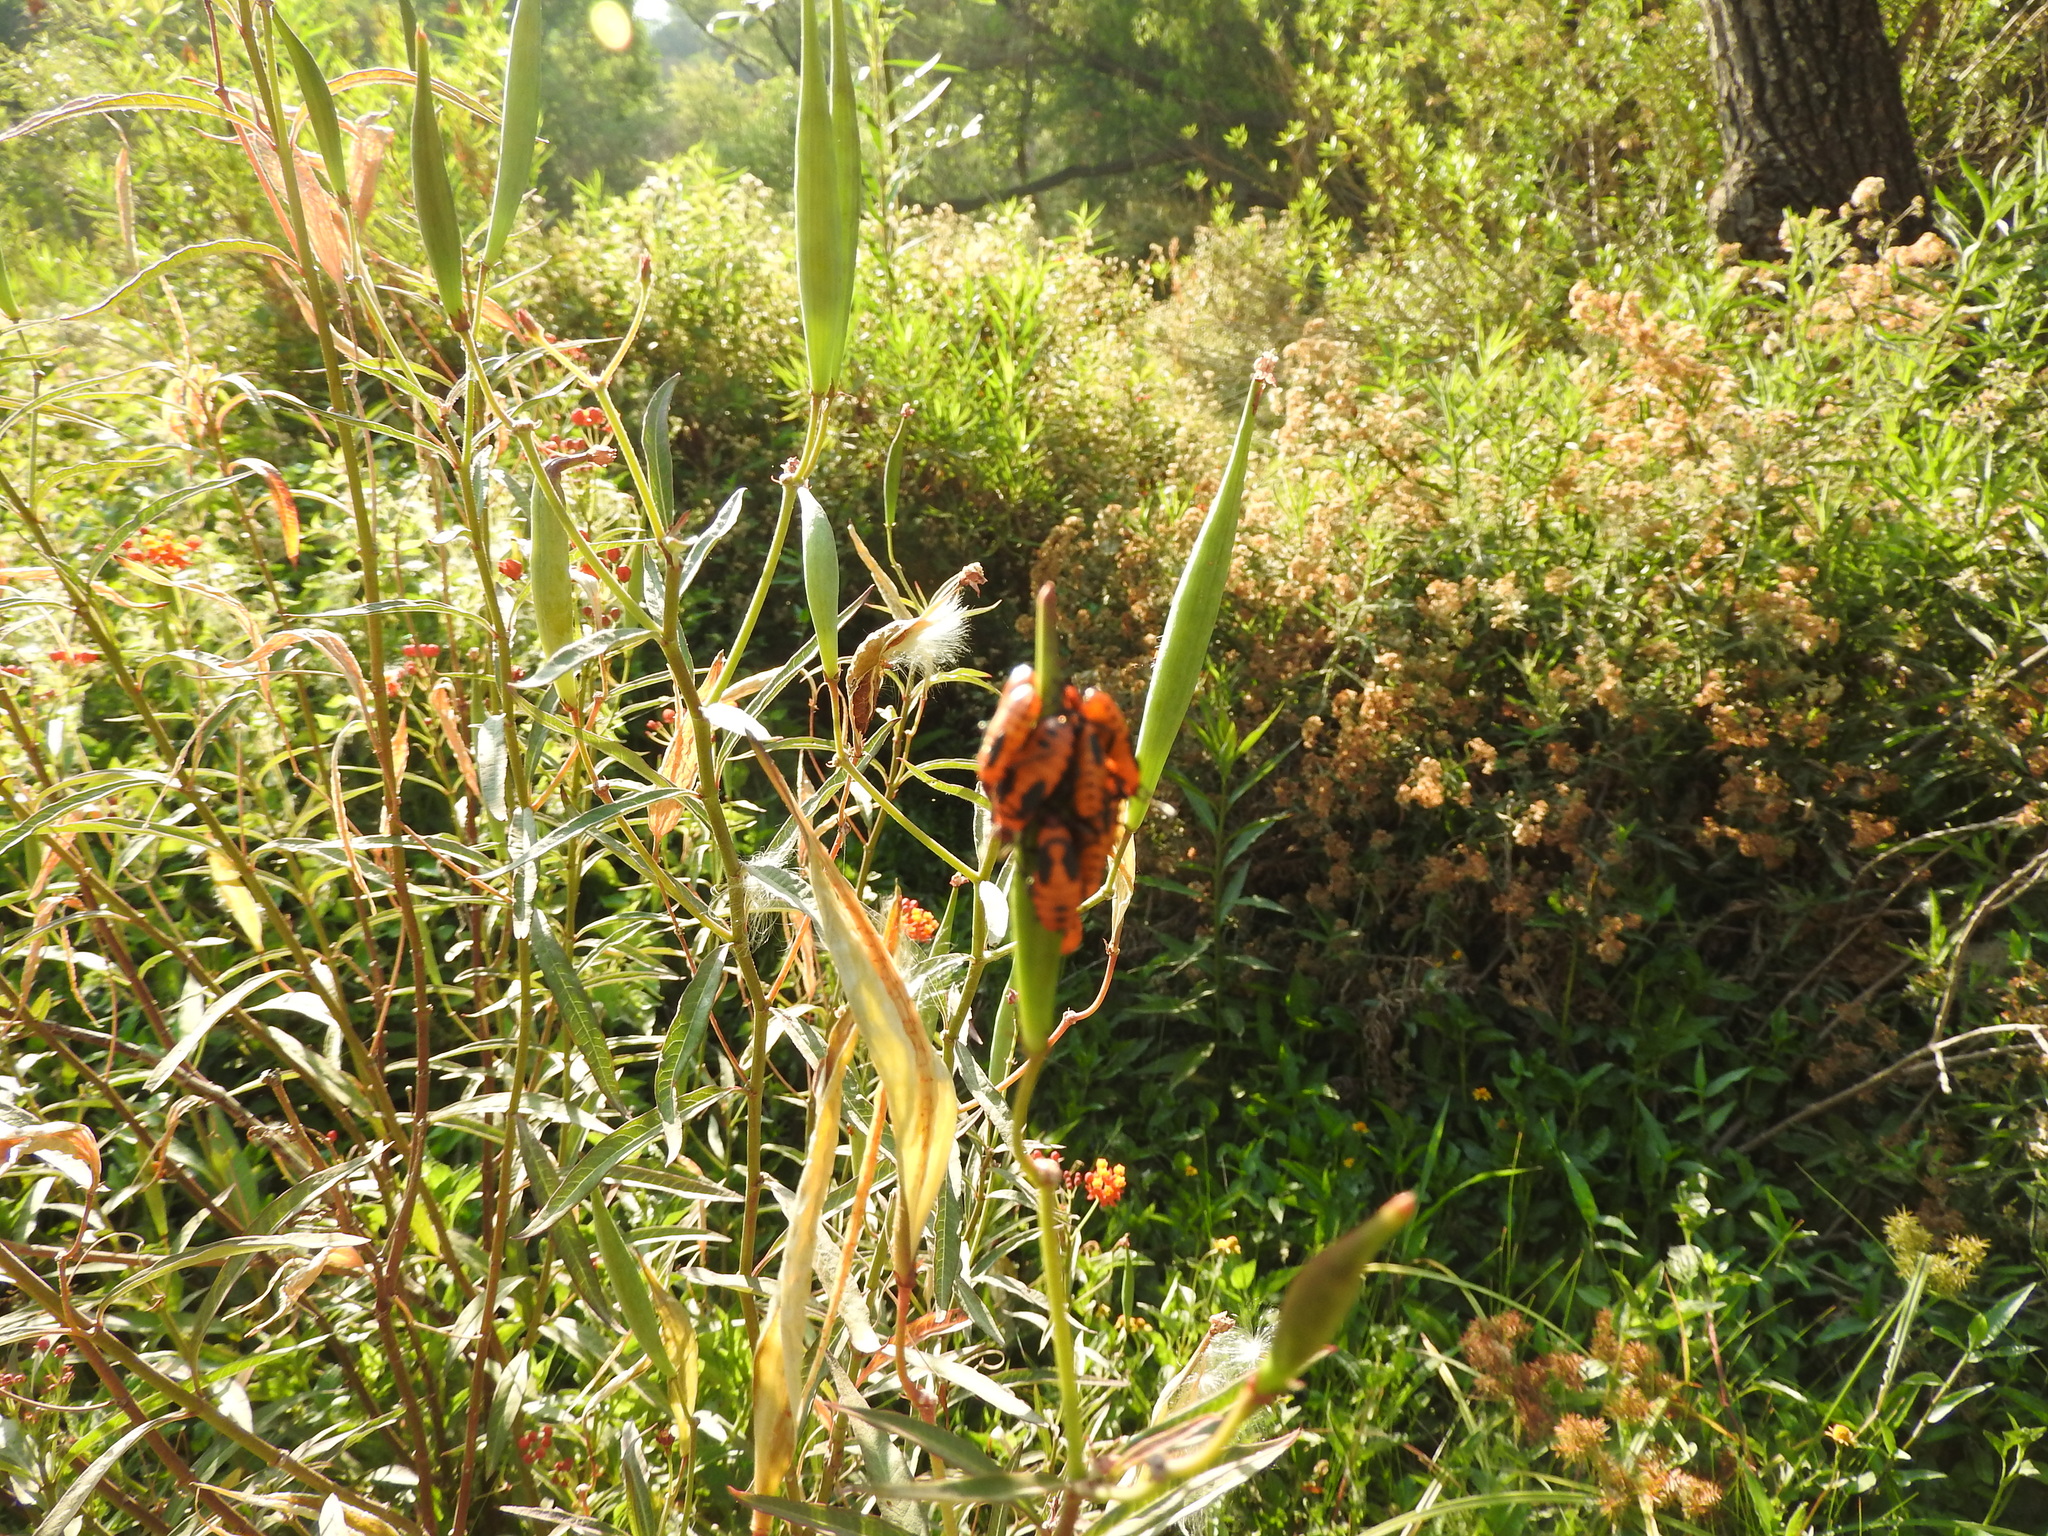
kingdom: Animalia
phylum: Arthropoda
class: Insecta
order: Hemiptera
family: Lygaeidae
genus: Oncopeltus
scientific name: Oncopeltus fasciatus
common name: Large milkweed bug
